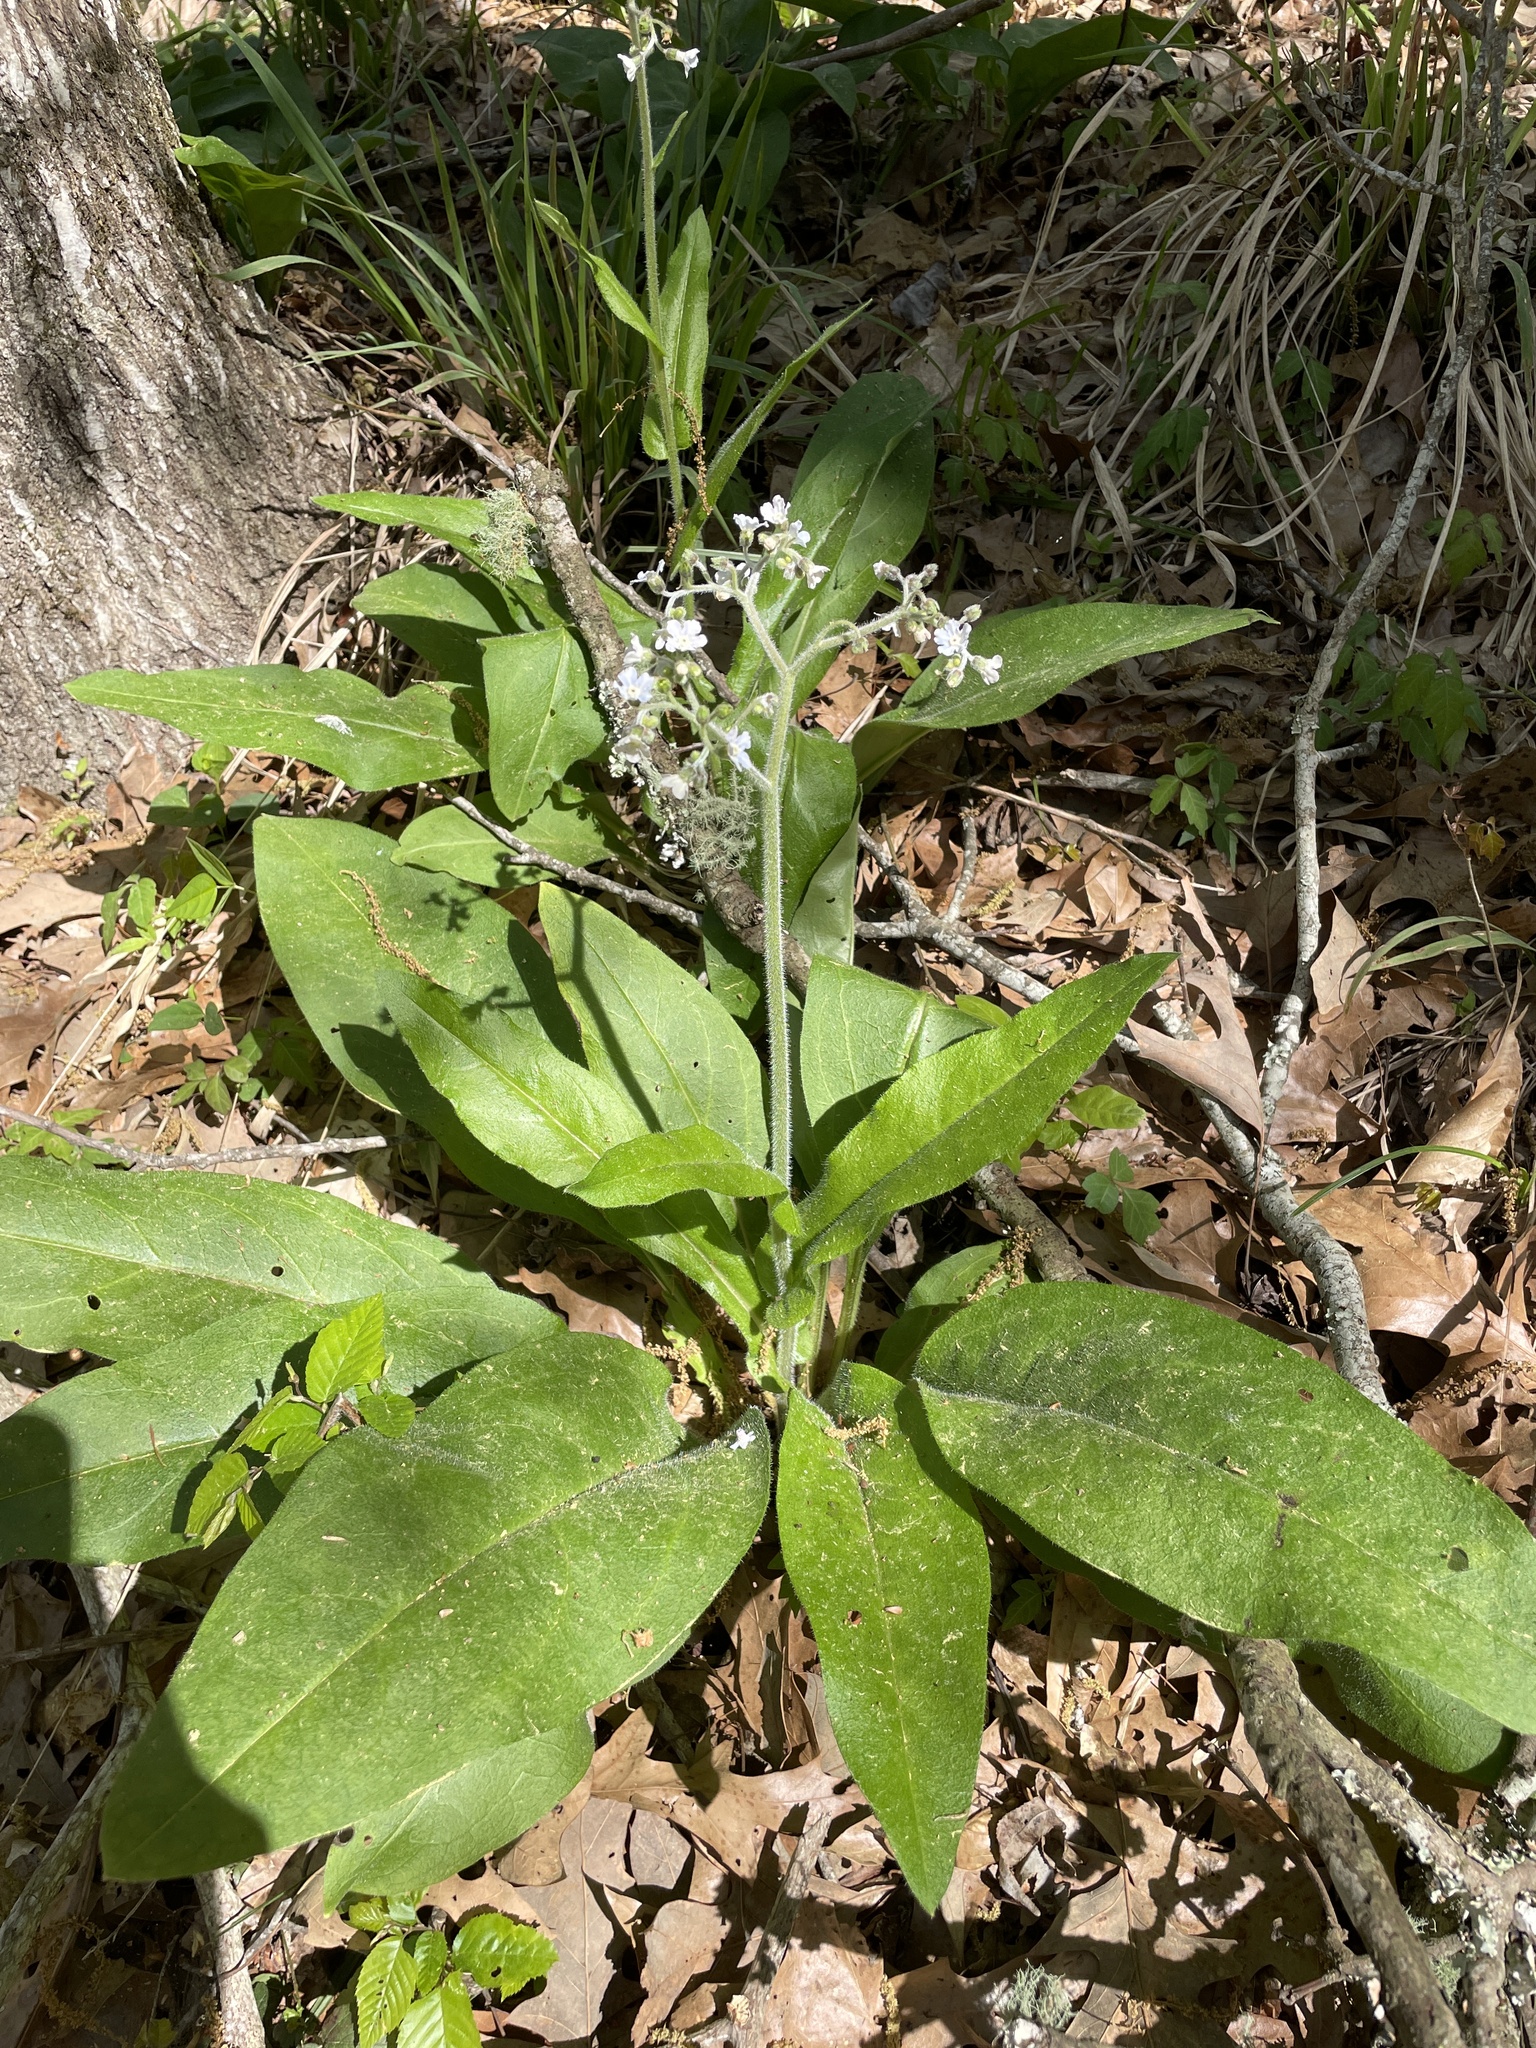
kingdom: Plantae
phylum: Tracheophyta
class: Magnoliopsida
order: Boraginales
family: Boraginaceae
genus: Andersonglossum
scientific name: Andersonglossum virginianum
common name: Wild comfrey
